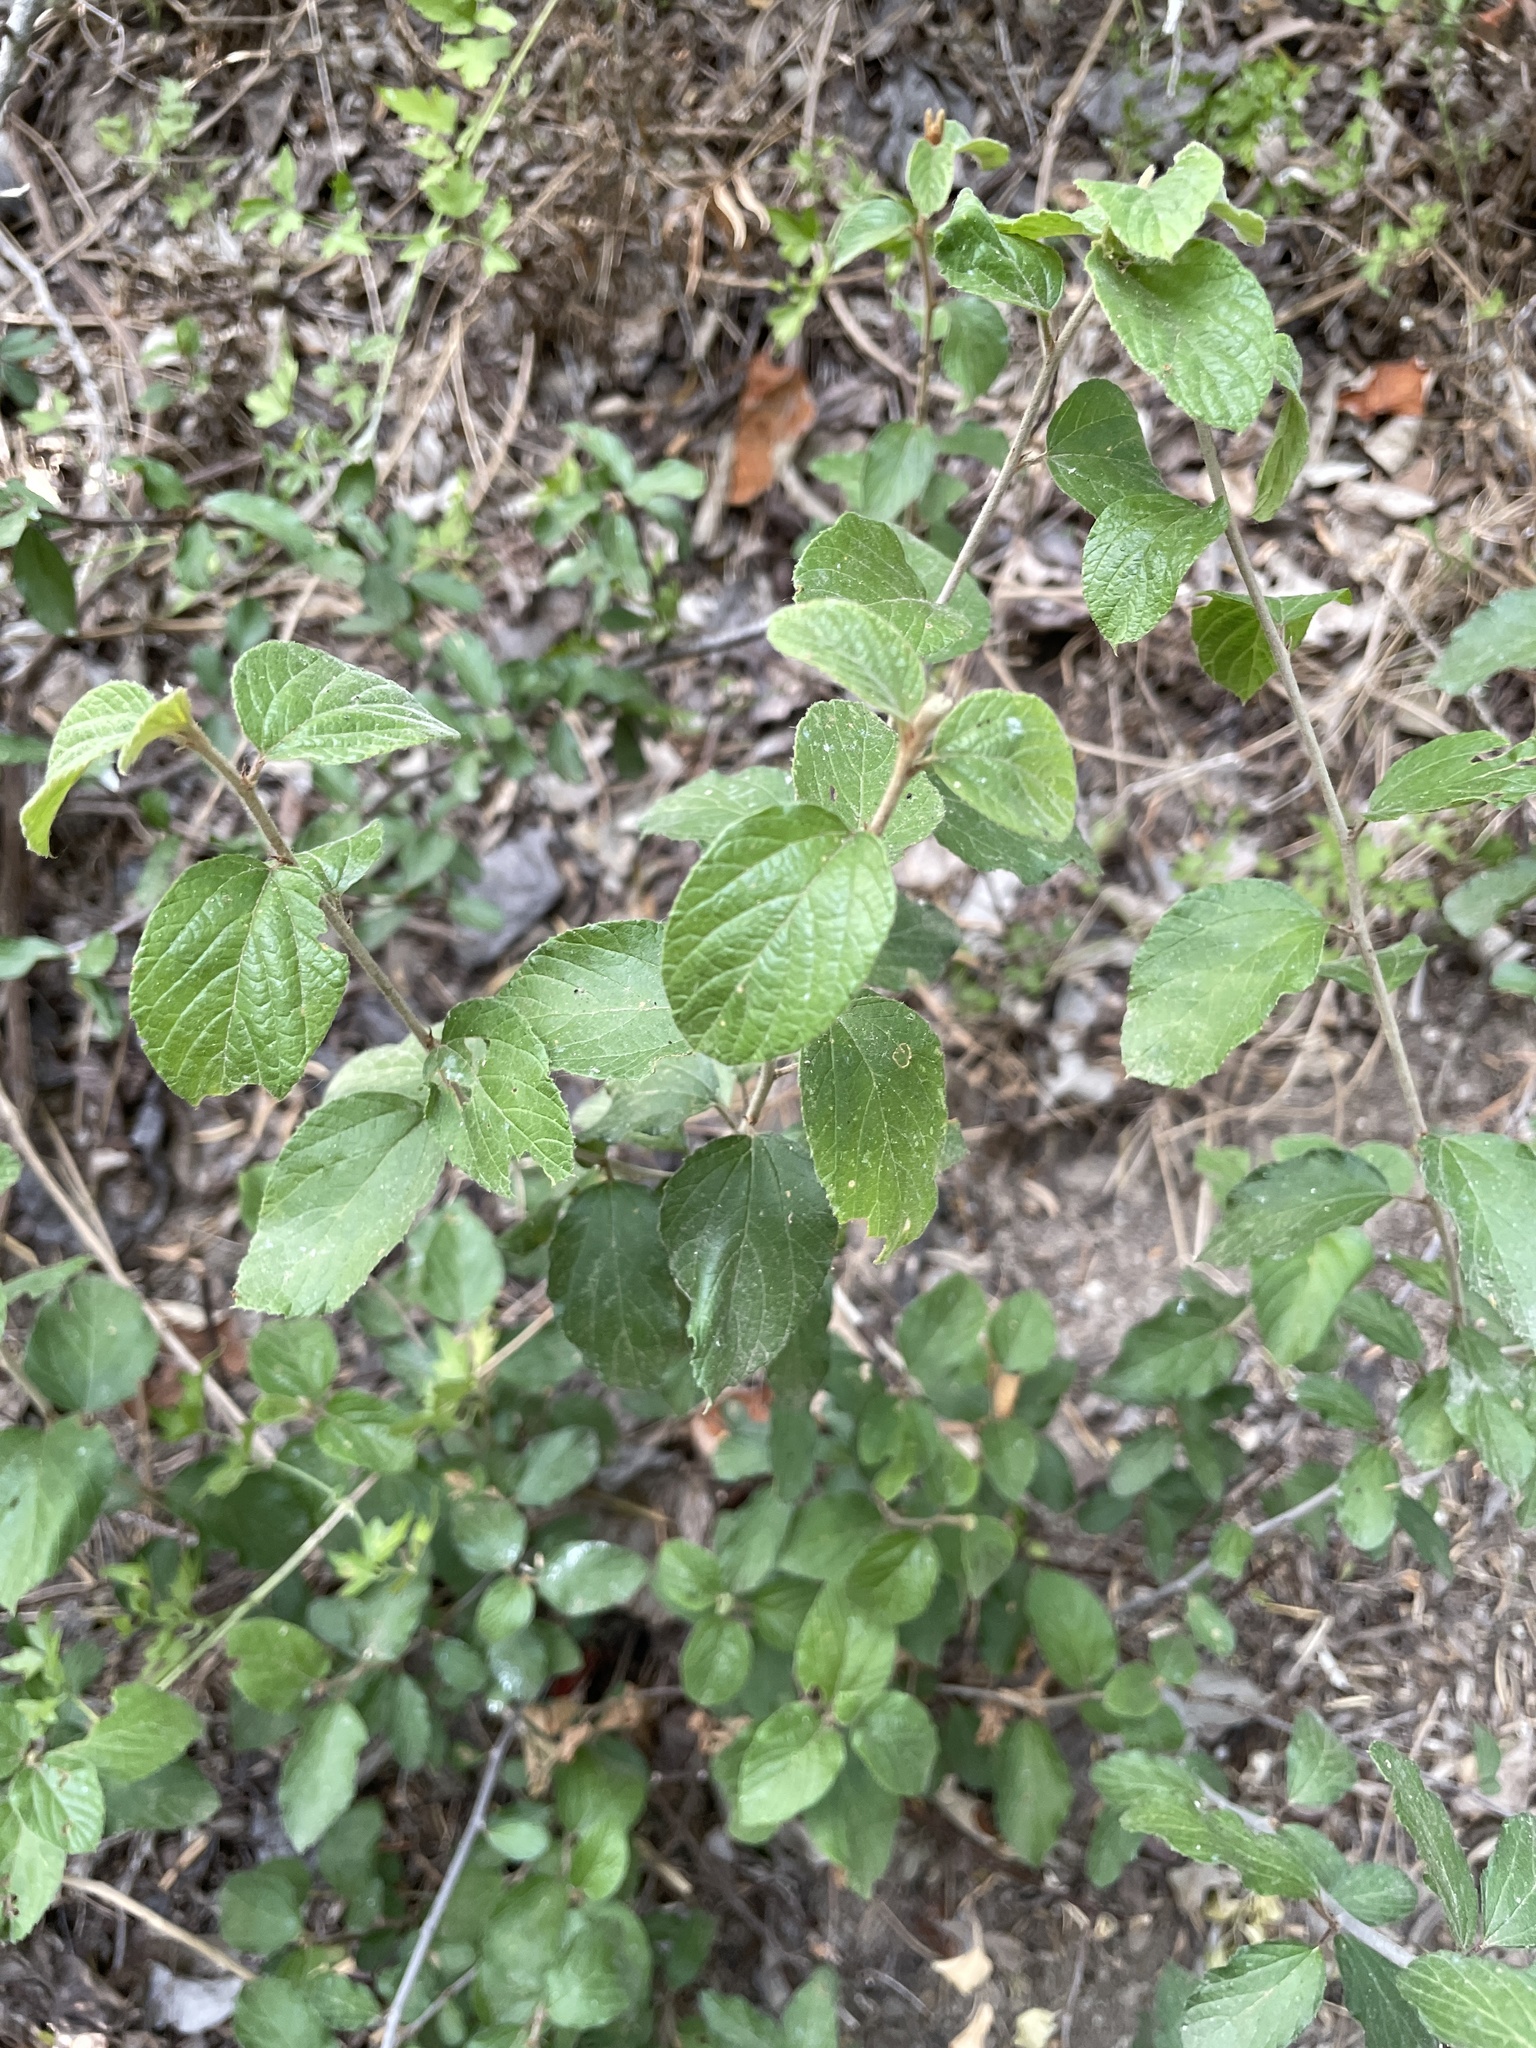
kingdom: Plantae
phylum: Tracheophyta
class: Magnoliopsida
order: Rosales
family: Rhamnaceae
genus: Colubrina
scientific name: Colubrina texensis
